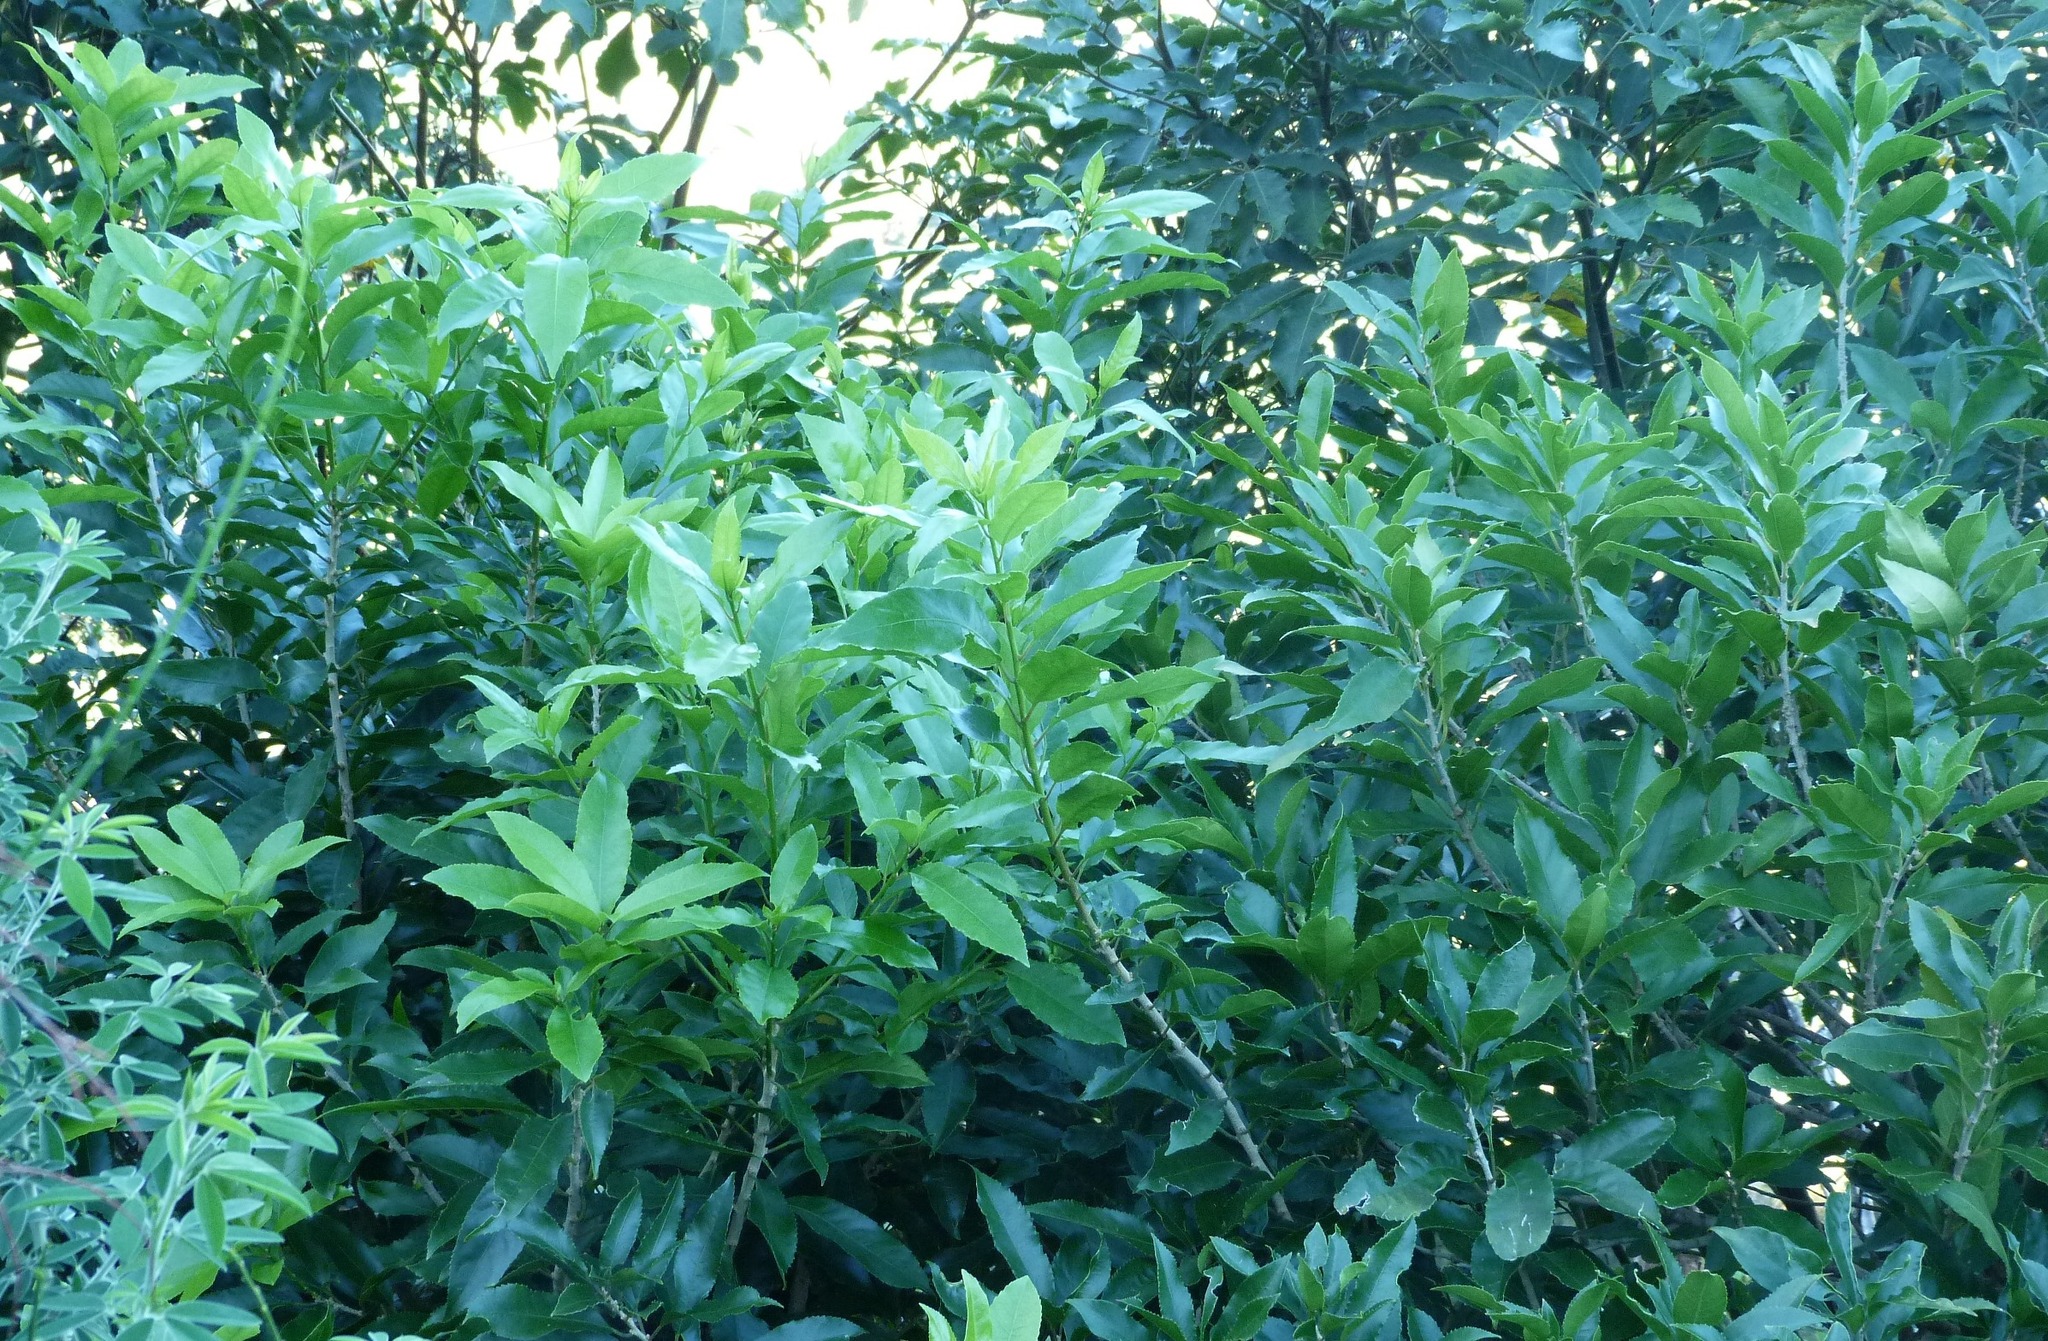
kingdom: Plantae
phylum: Tracheophyta
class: Magnoliopsida
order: Malpighiales
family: Violaceae
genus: Melicytus
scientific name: Melicytus ramiflorus
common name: Mahoe
